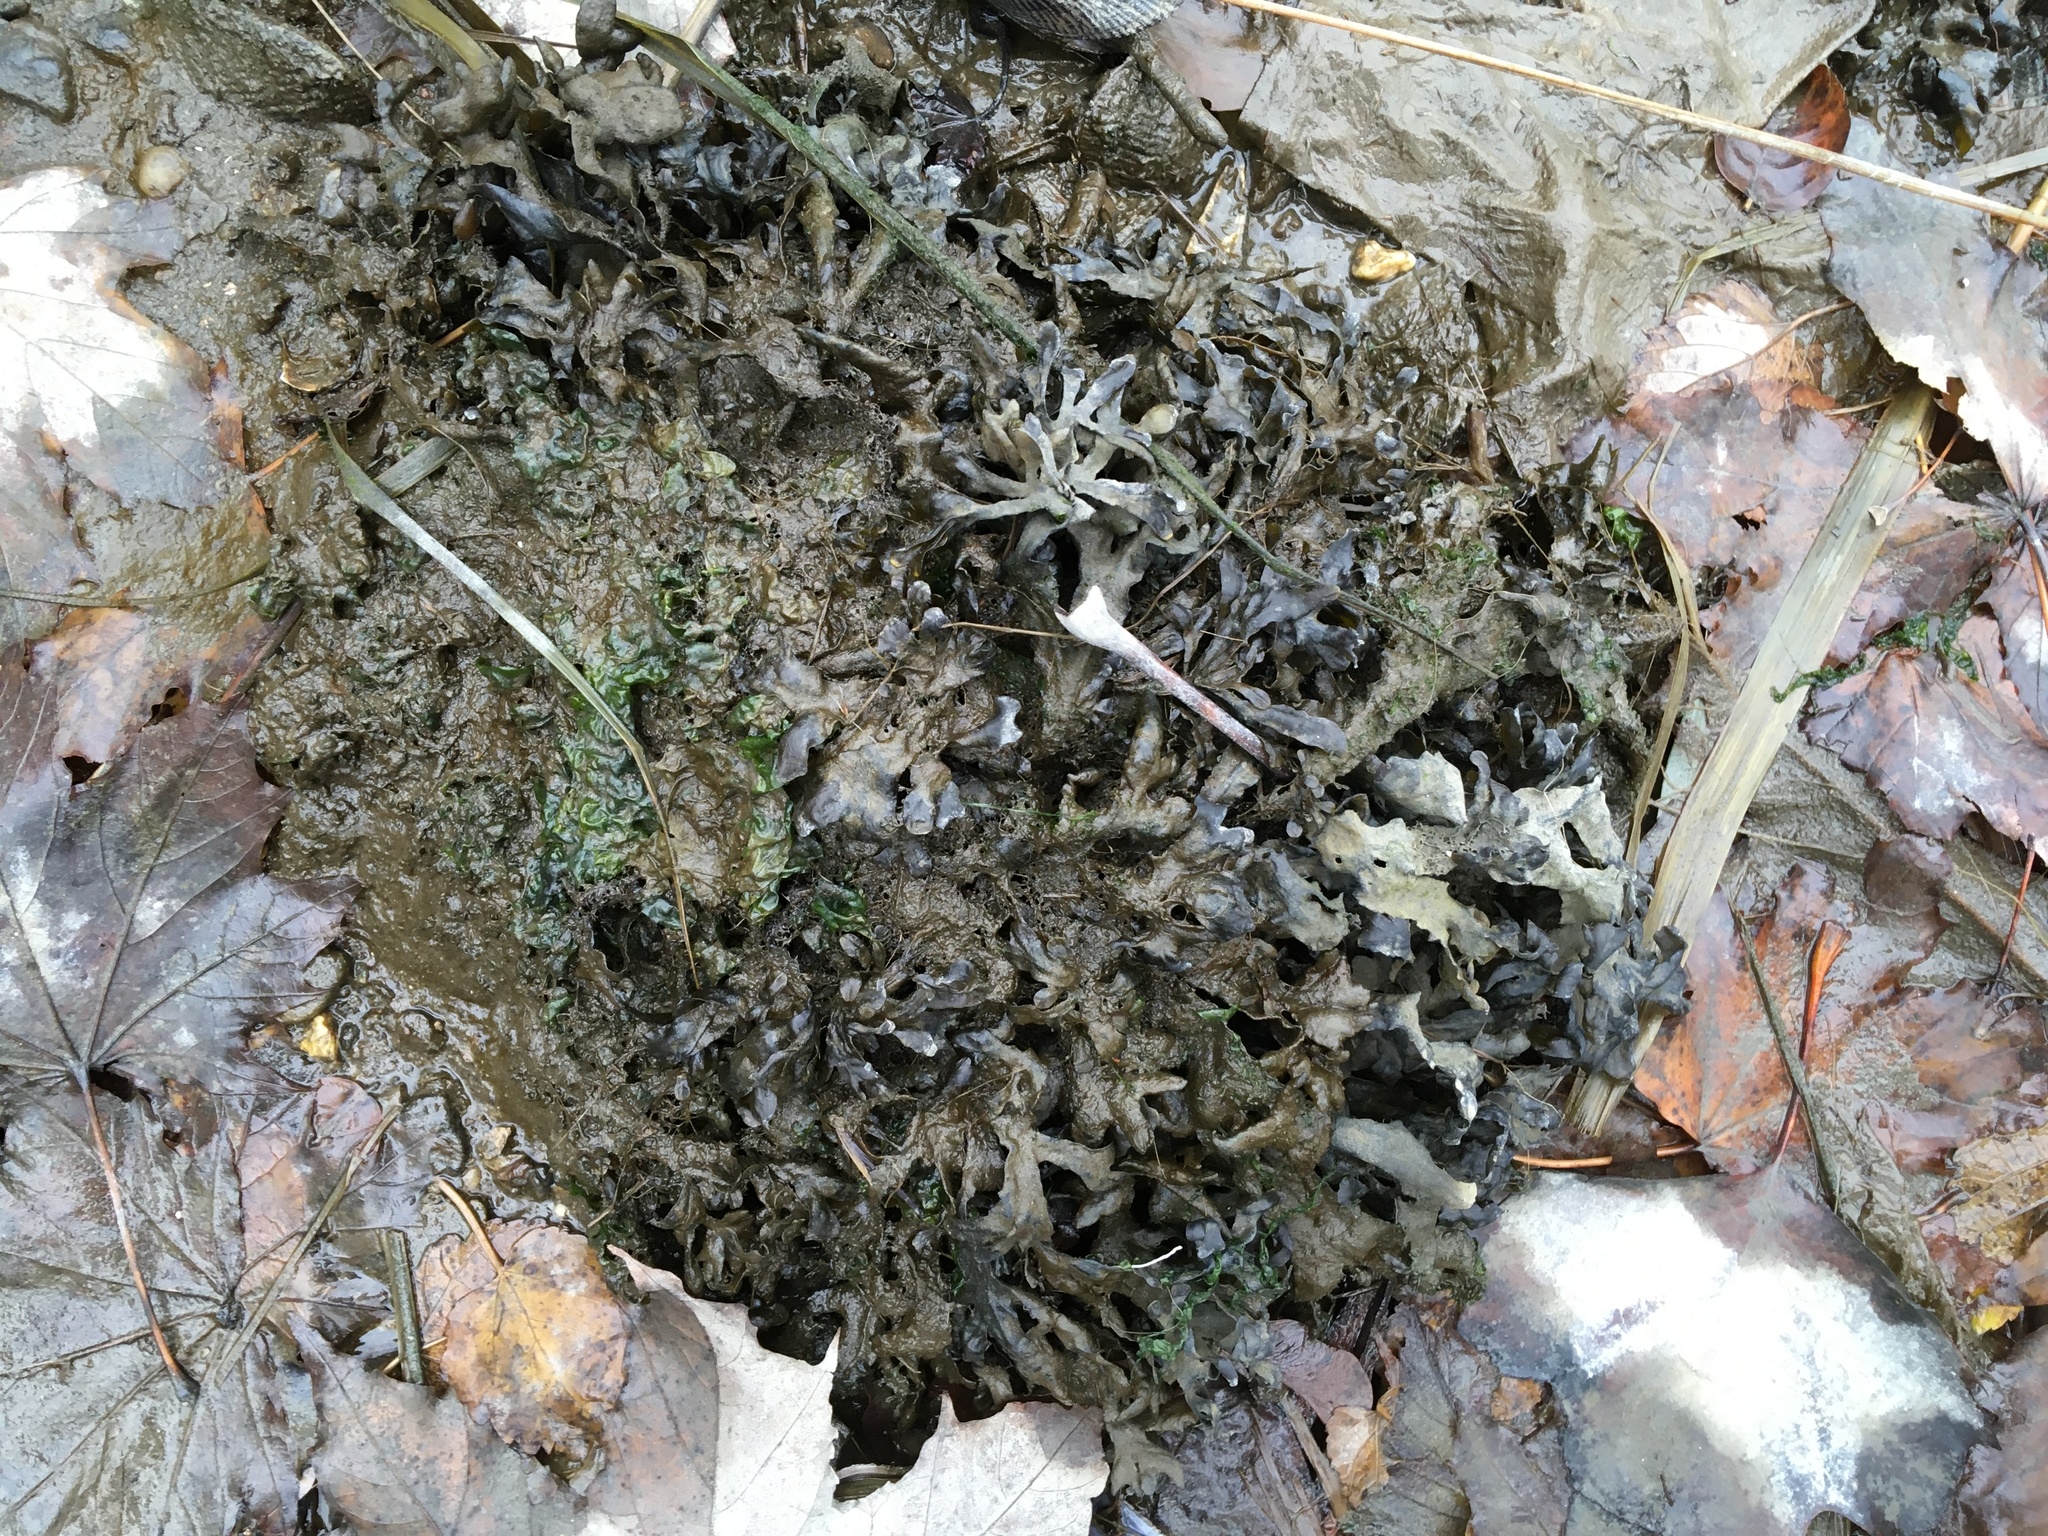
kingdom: Chromista
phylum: Ochrophyta
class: Phaeophyceae
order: Fucales
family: Fucaceae
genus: Fucus
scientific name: Fucus distichus
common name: Rockweed
